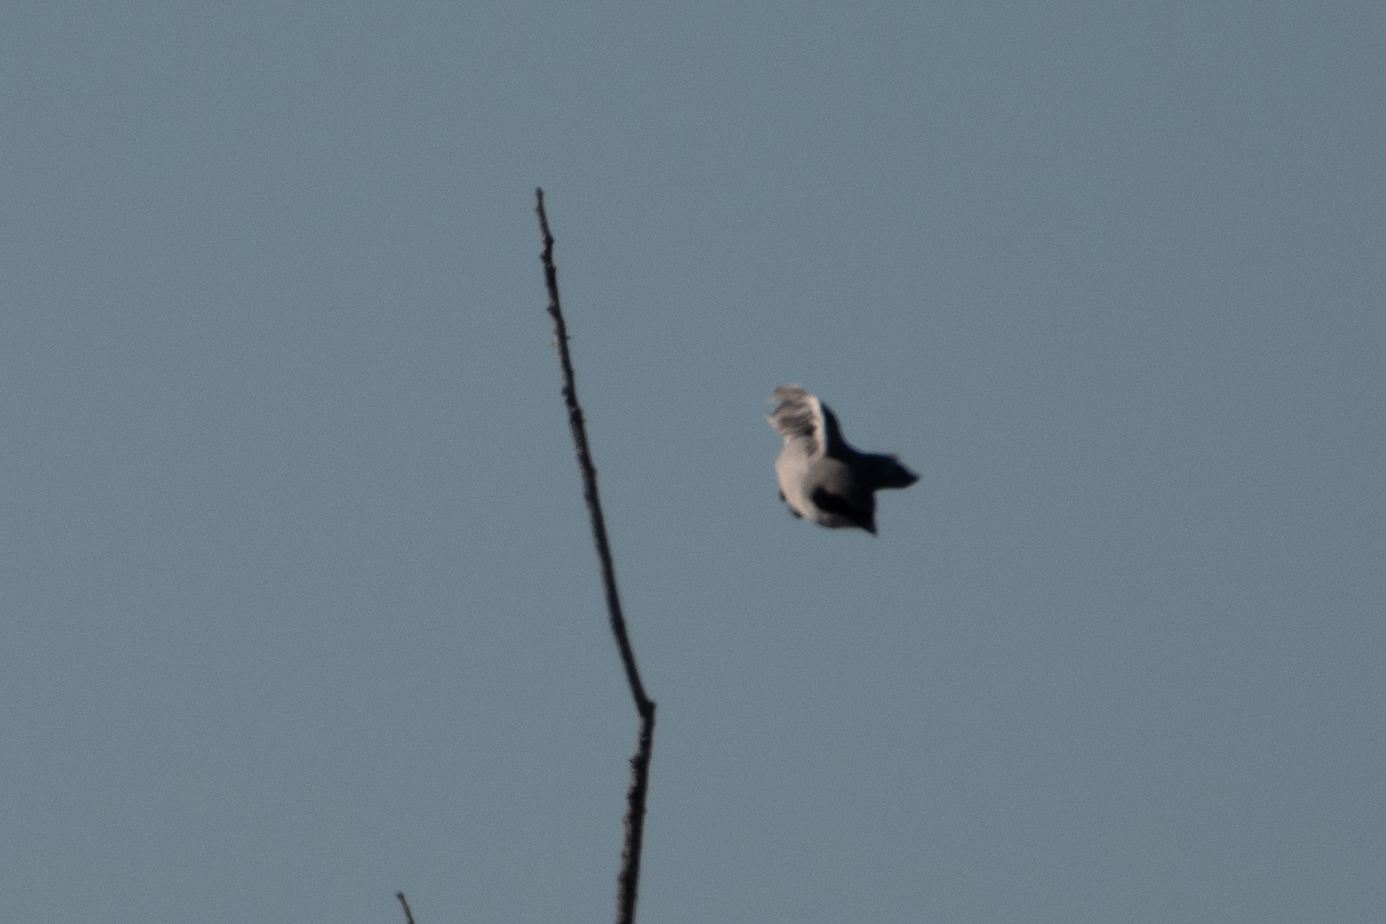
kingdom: Animalia
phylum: Chordata
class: Aves
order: Passeriformes
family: Laniidae
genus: Lanius
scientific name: Lanius ludovicianus
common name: Loggerhead shrike
